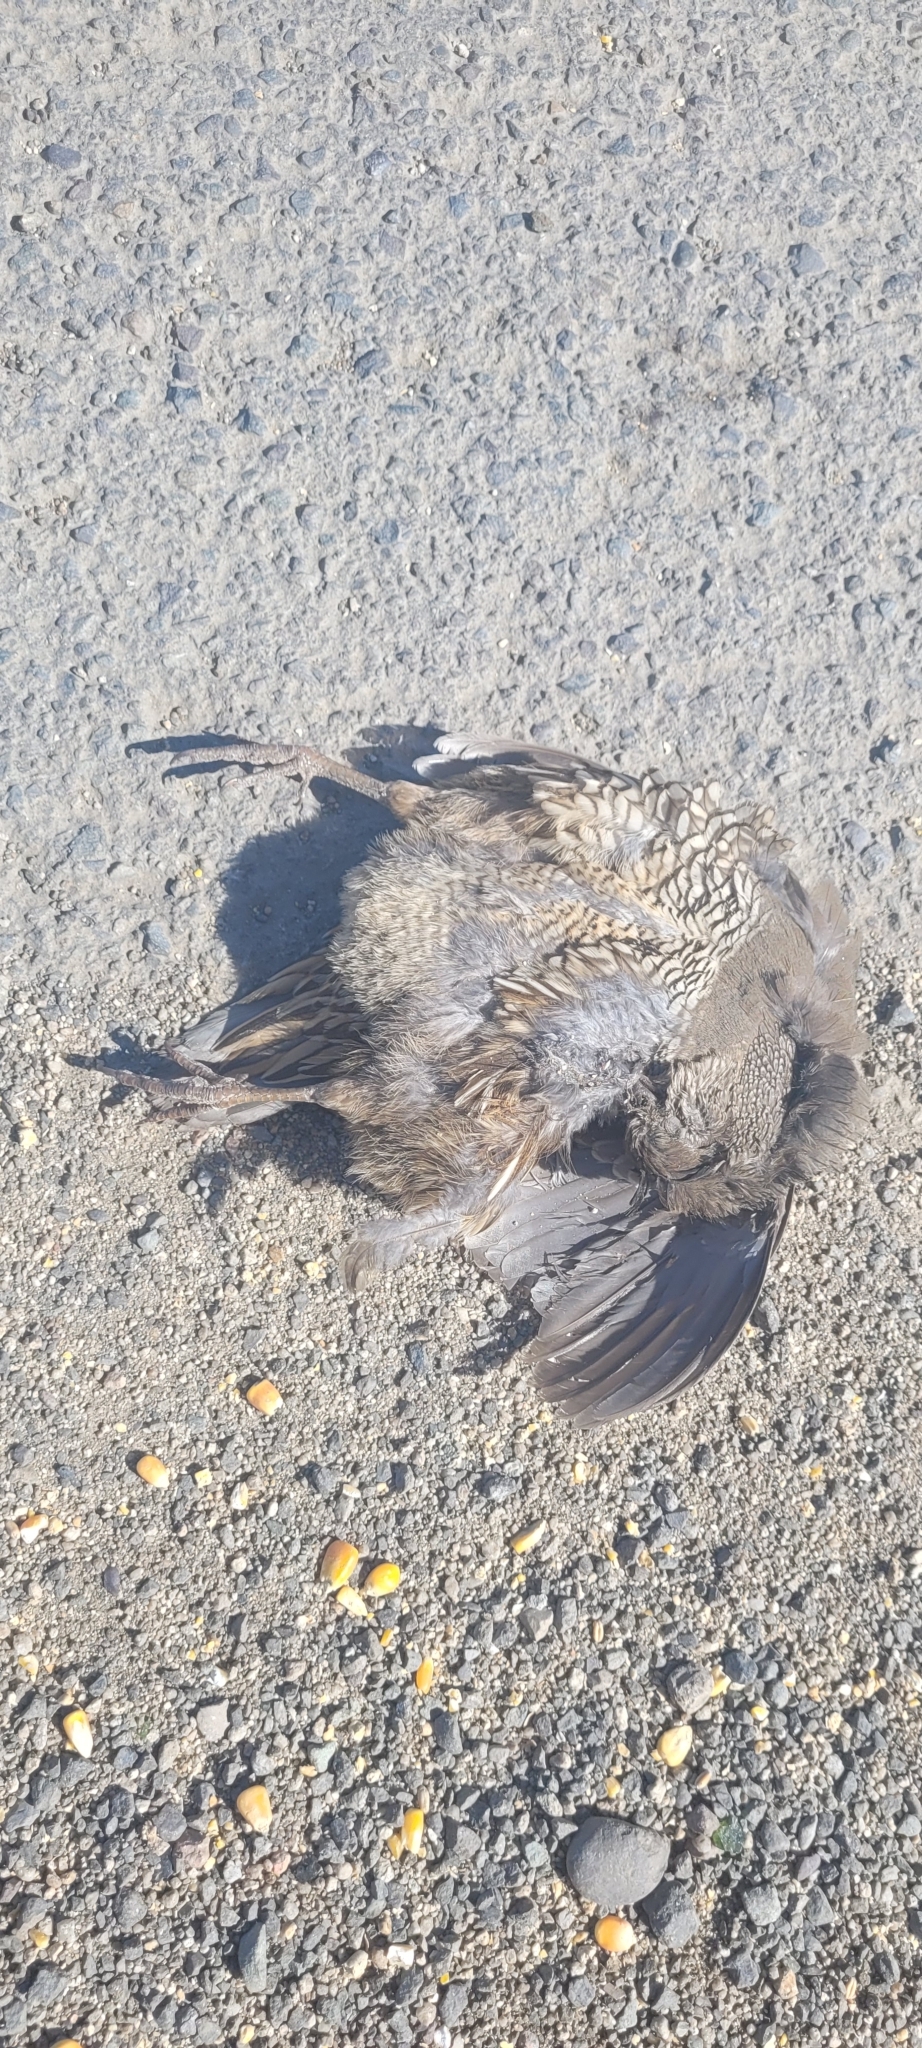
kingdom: Animalia
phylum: Chordata
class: Aves
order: Galliformes
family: Odontophoridae
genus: Callipepla
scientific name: Callipepla californica
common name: California quail
